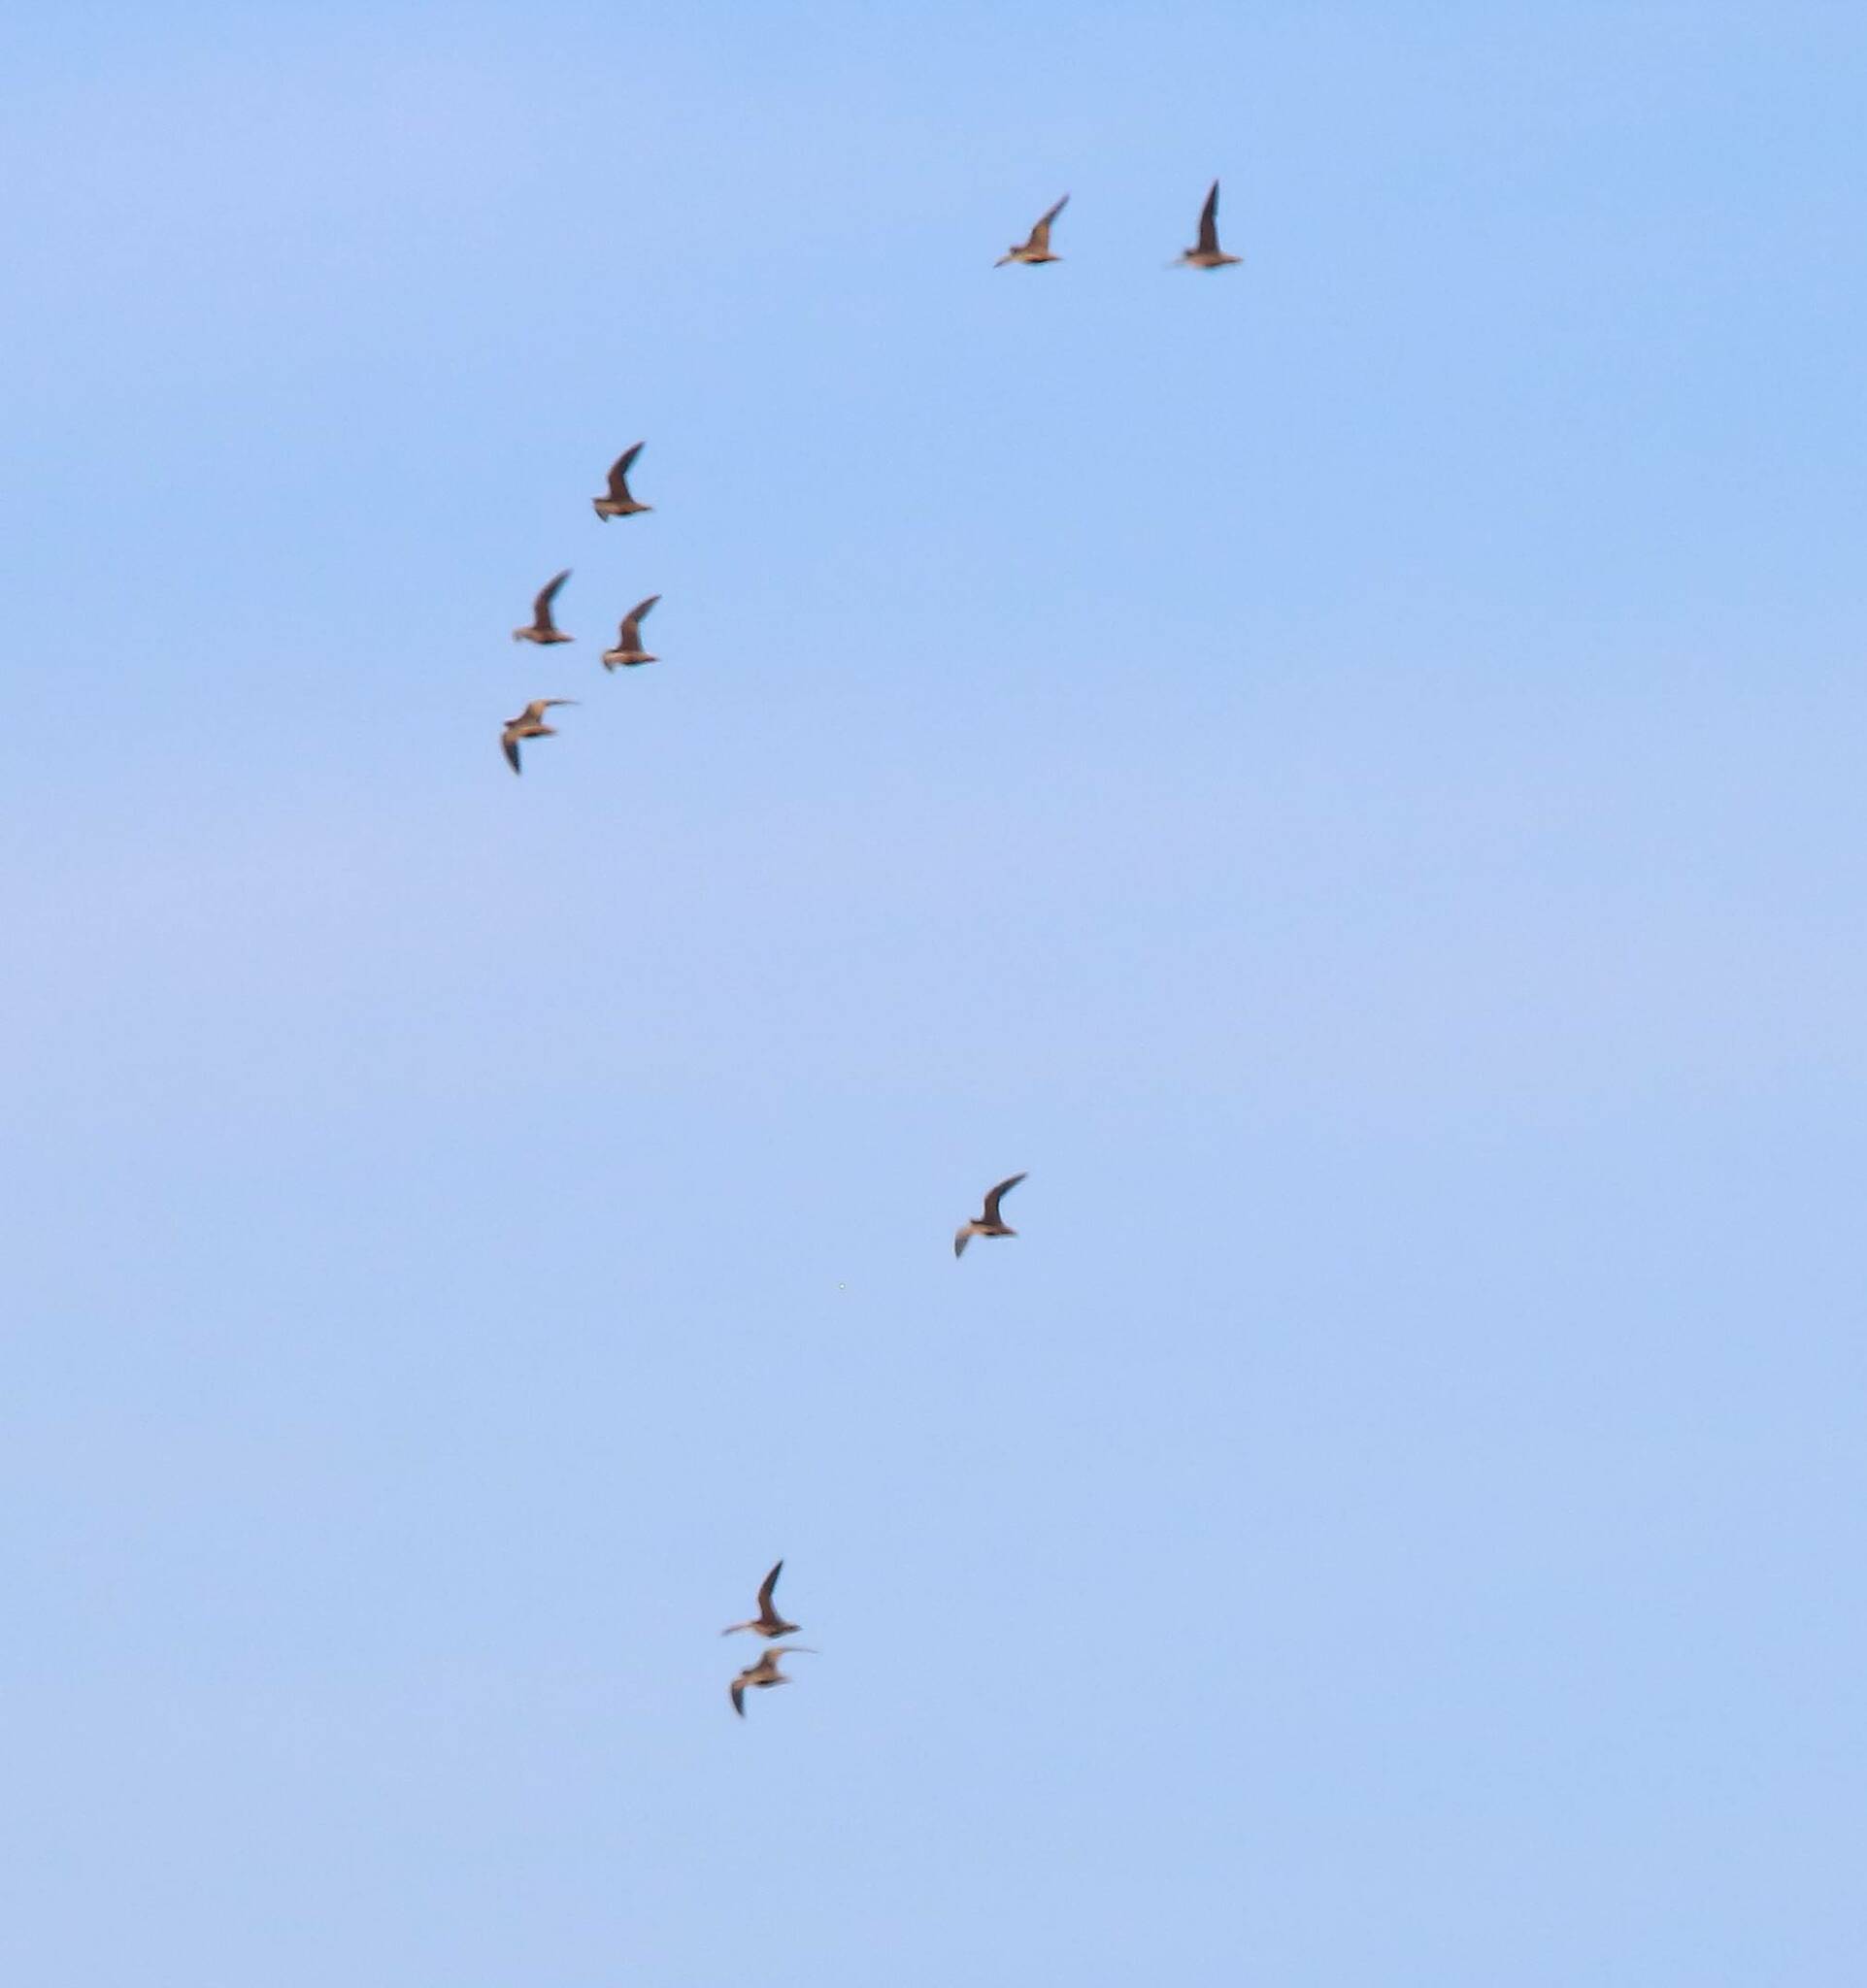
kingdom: Animalia
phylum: Chordata
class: Aves
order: Pteroclidiformes
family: Pteroclididae
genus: Pterocles
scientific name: Pterocles orientalis
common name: Black-bellied sandgrouse
